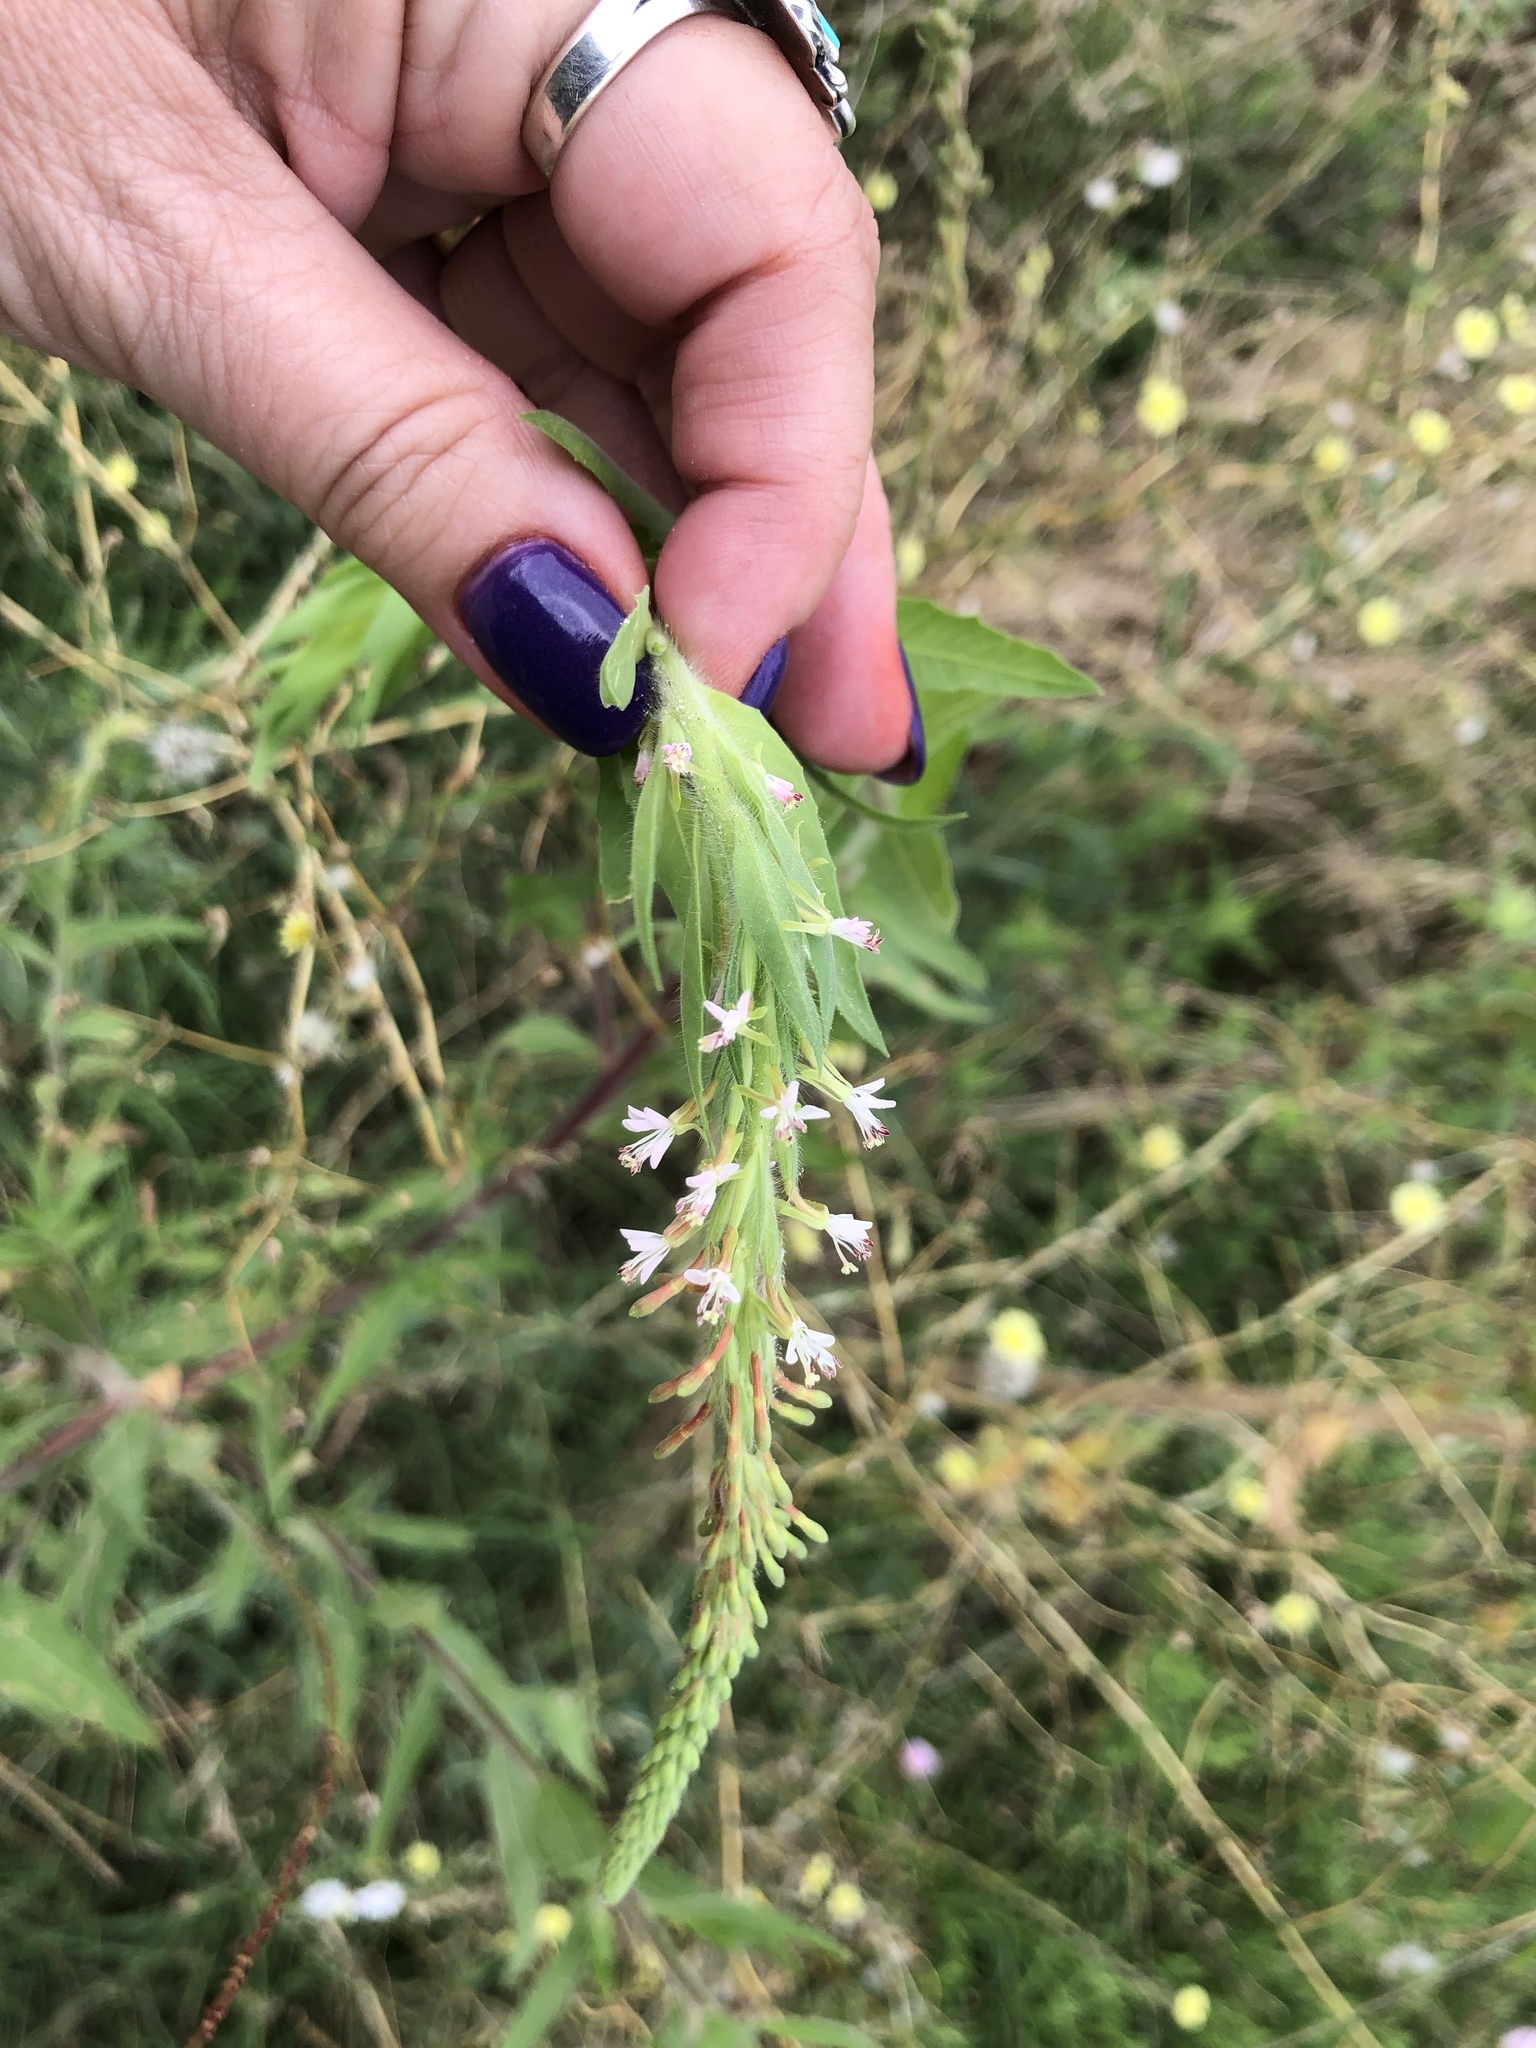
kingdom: Plantae
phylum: Tracheophyta
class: Magnoliopsida
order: Myrtales
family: Onagraceae
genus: Oenothera
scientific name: Oenothera curtiflora
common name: Velvetweed
